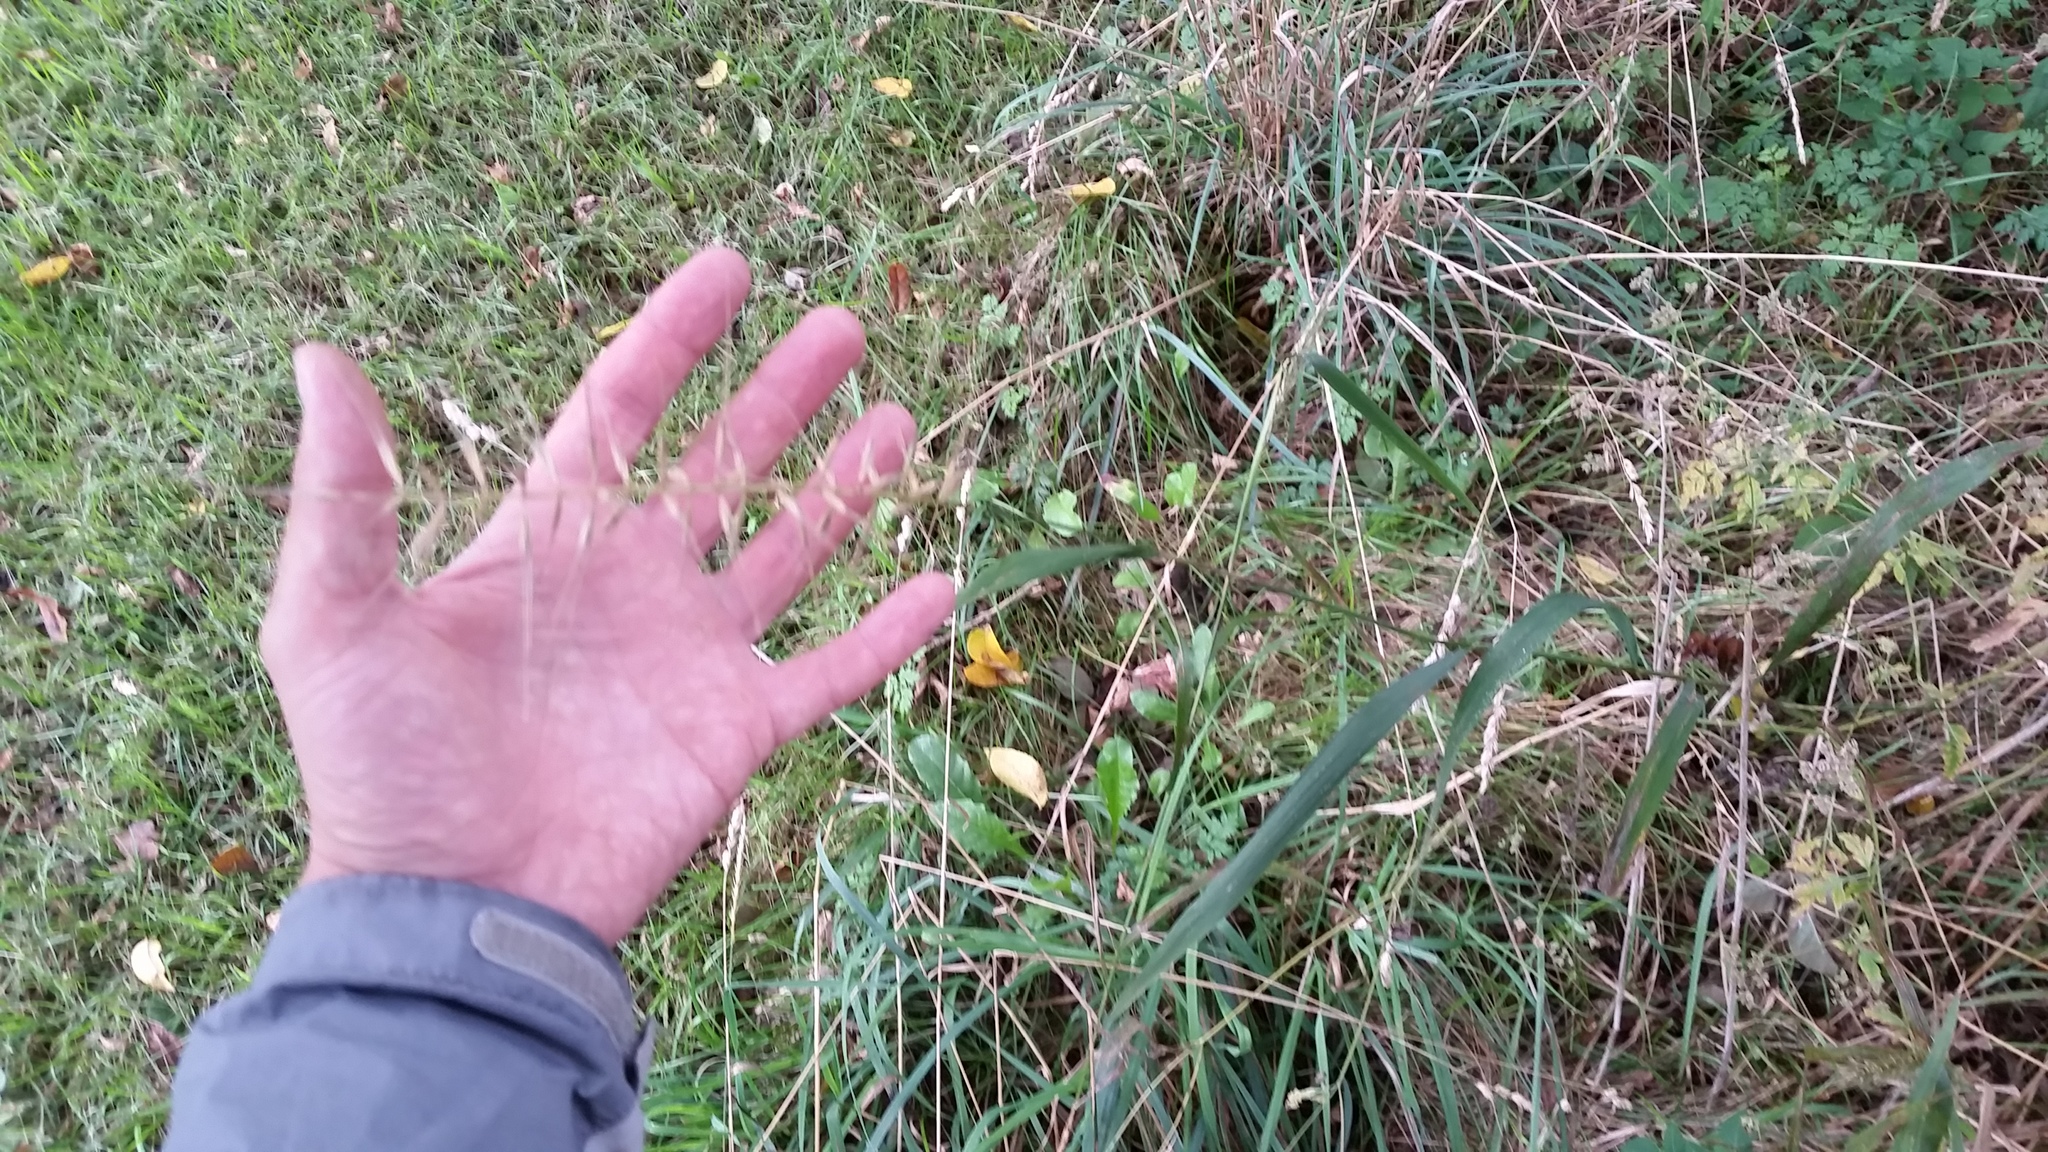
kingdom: Plantae
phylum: Tracheophyta
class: Liliopsida
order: Poales
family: Poaceae
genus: Elymus
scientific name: Elymus hystrix
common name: Bottlebrush grass
